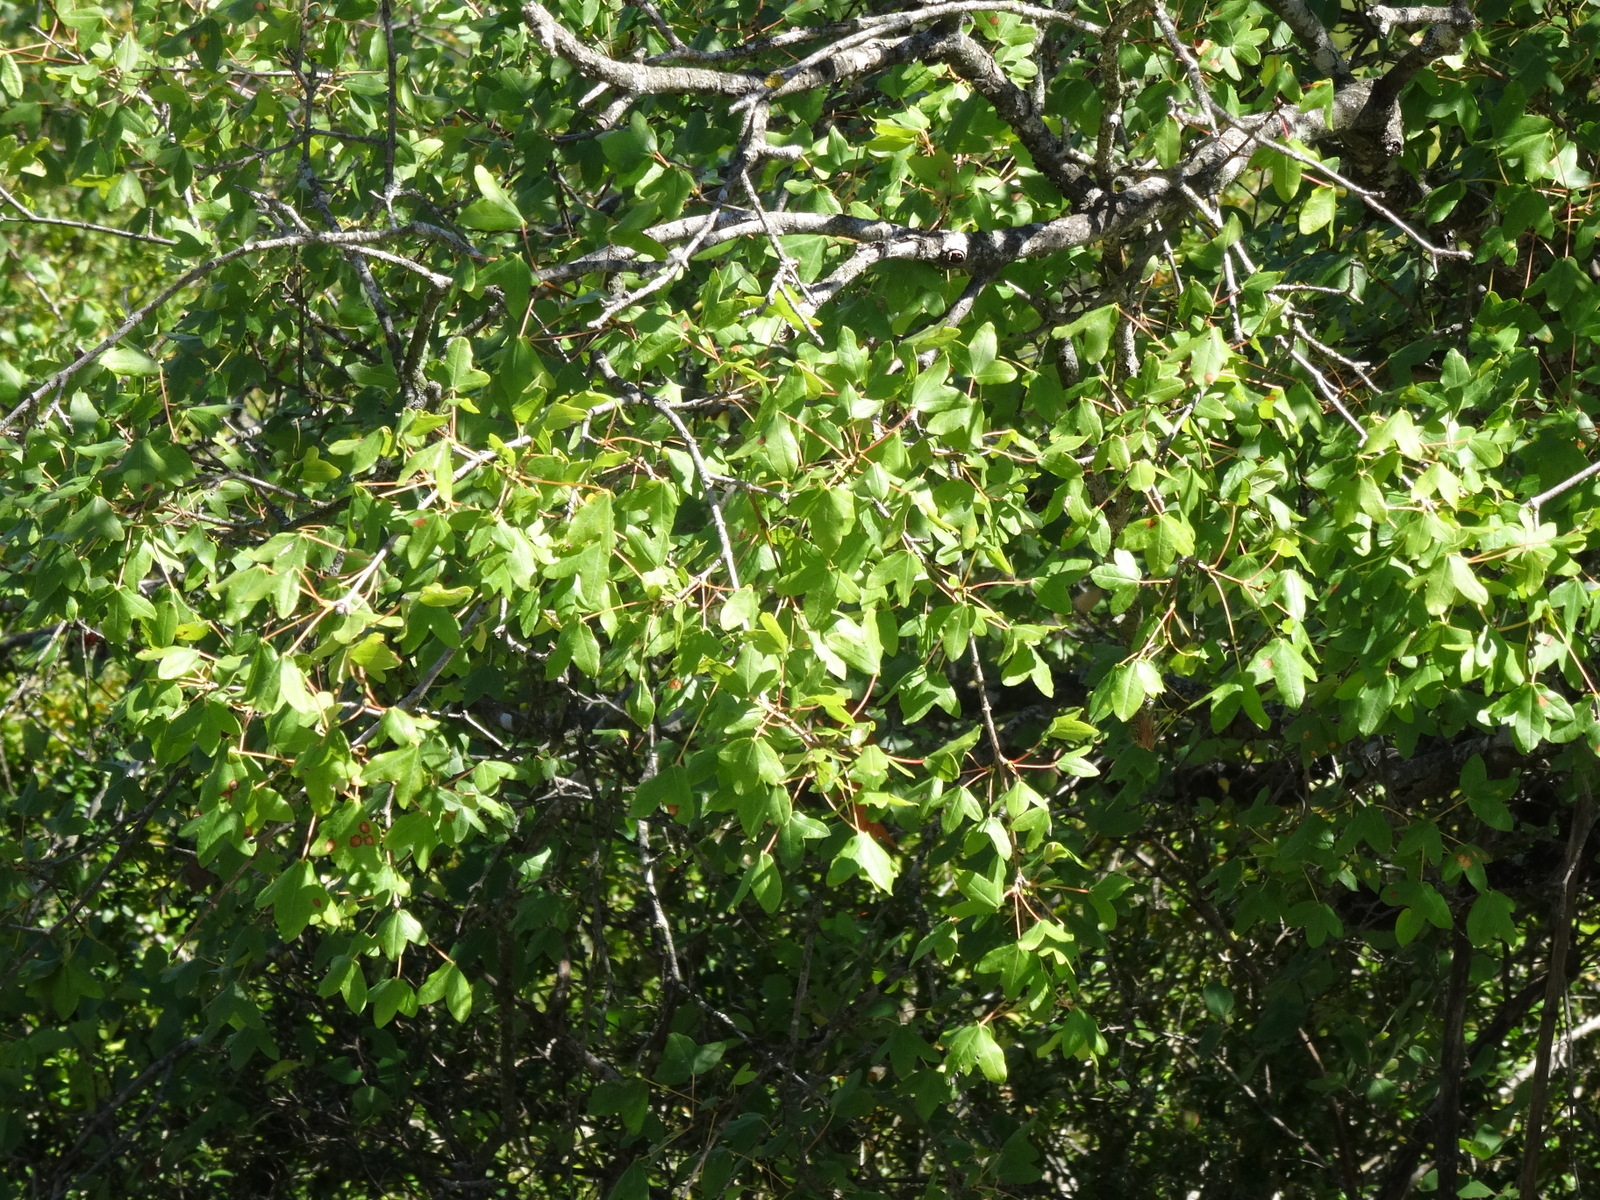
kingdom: Plantae
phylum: Tracheophyta
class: Magnoliopsida
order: Sapindales
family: Sapindaceae
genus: Acer
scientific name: Acer monspessulanum
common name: Montpellier maple
